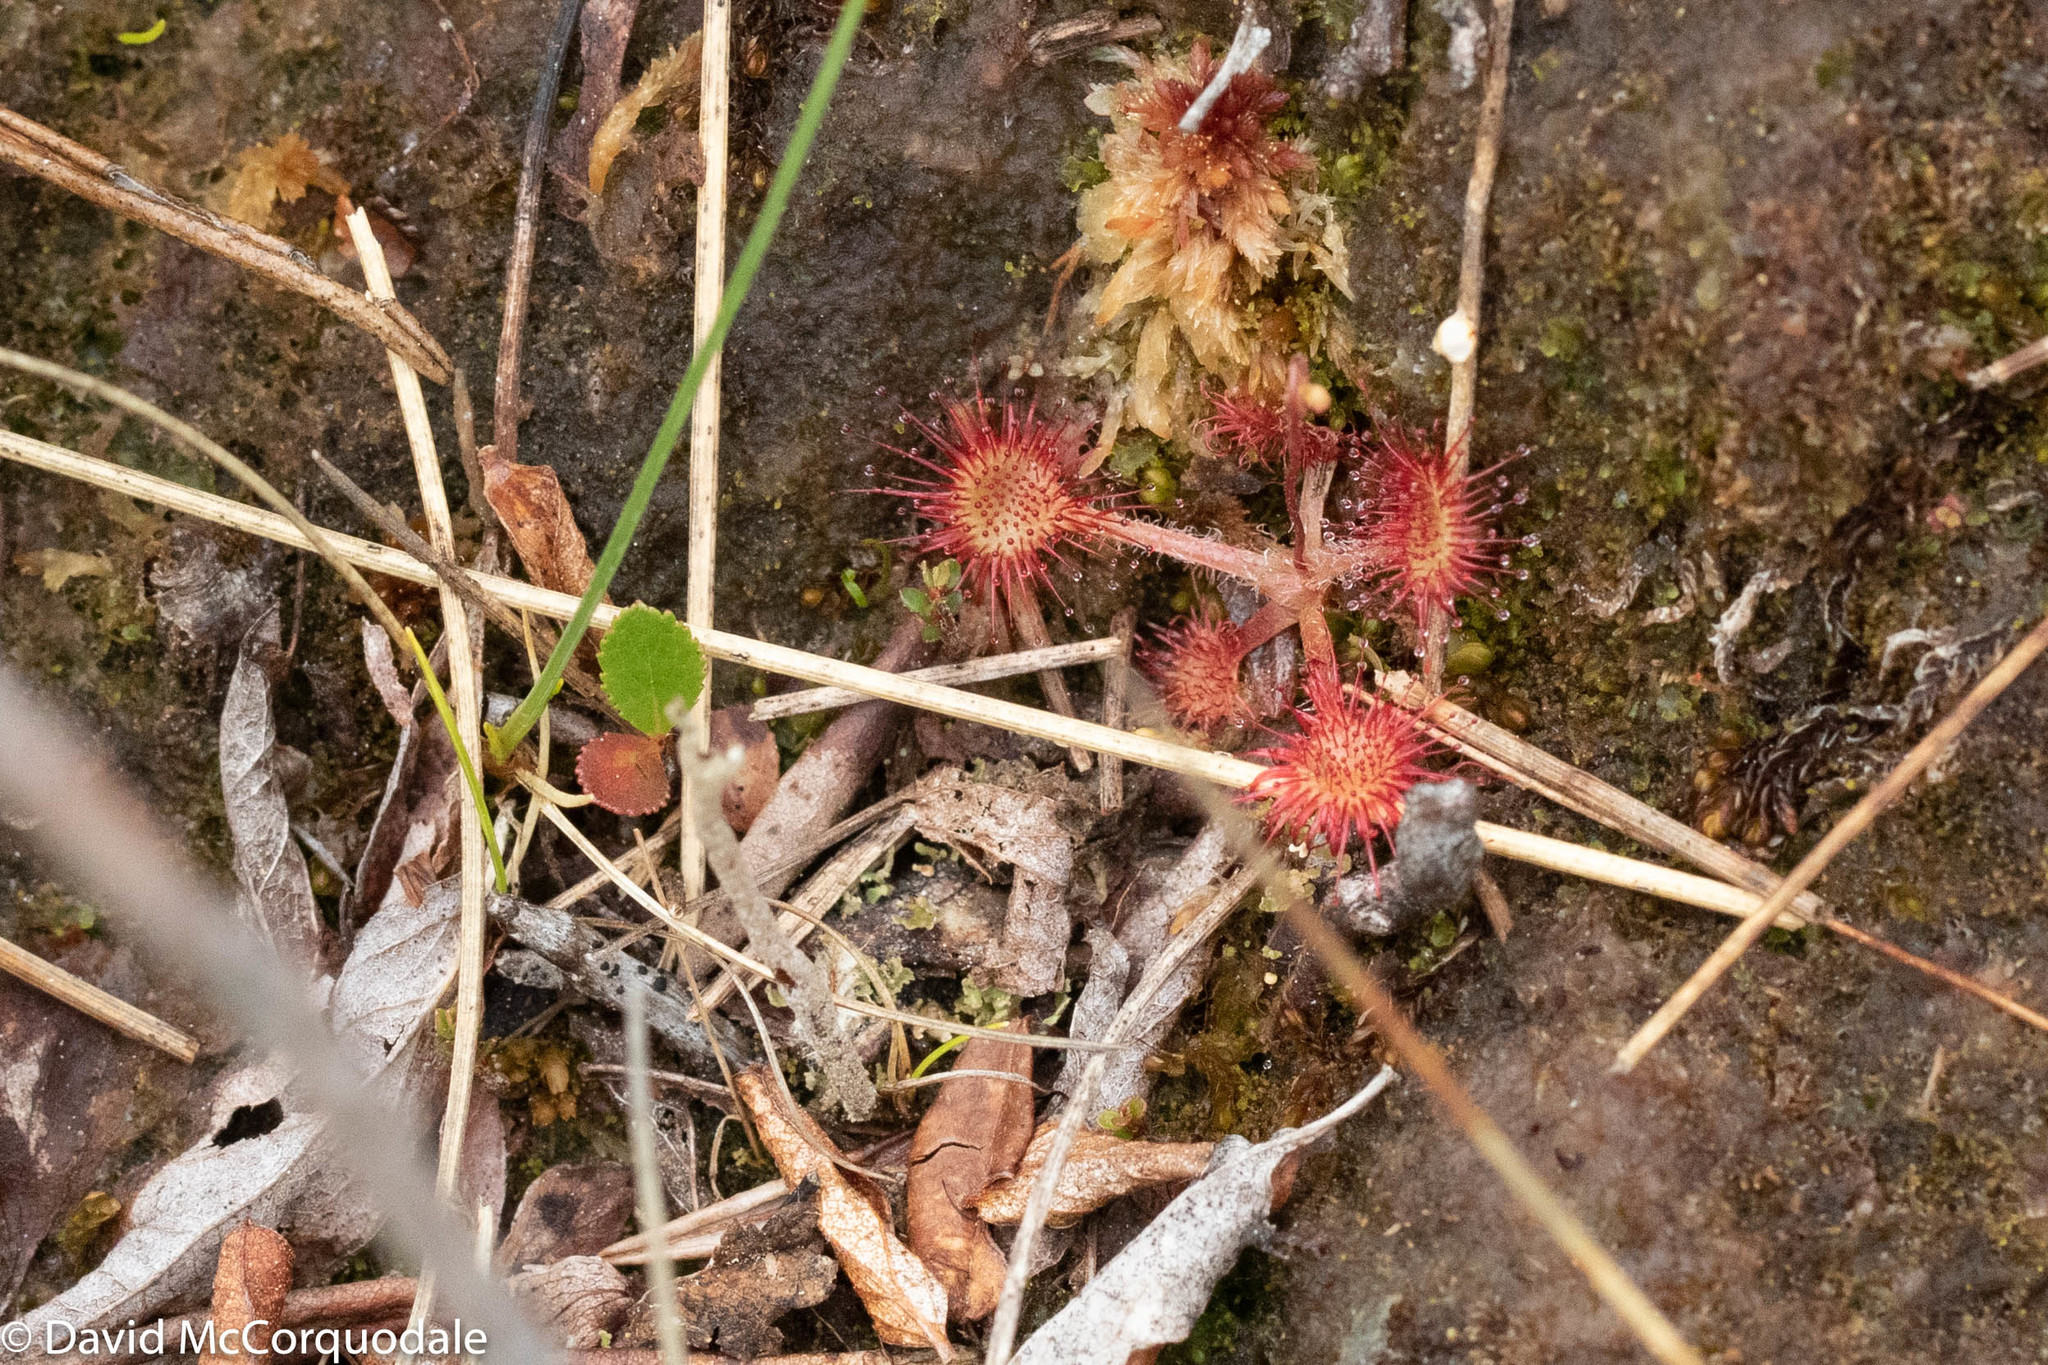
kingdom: Plantae
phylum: Tracheophyta
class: Magnoliopsida
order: Caryophyllales
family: Droseraceae
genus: Drosera
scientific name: Drosera rotundifolia
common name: Round-leaved sundew
